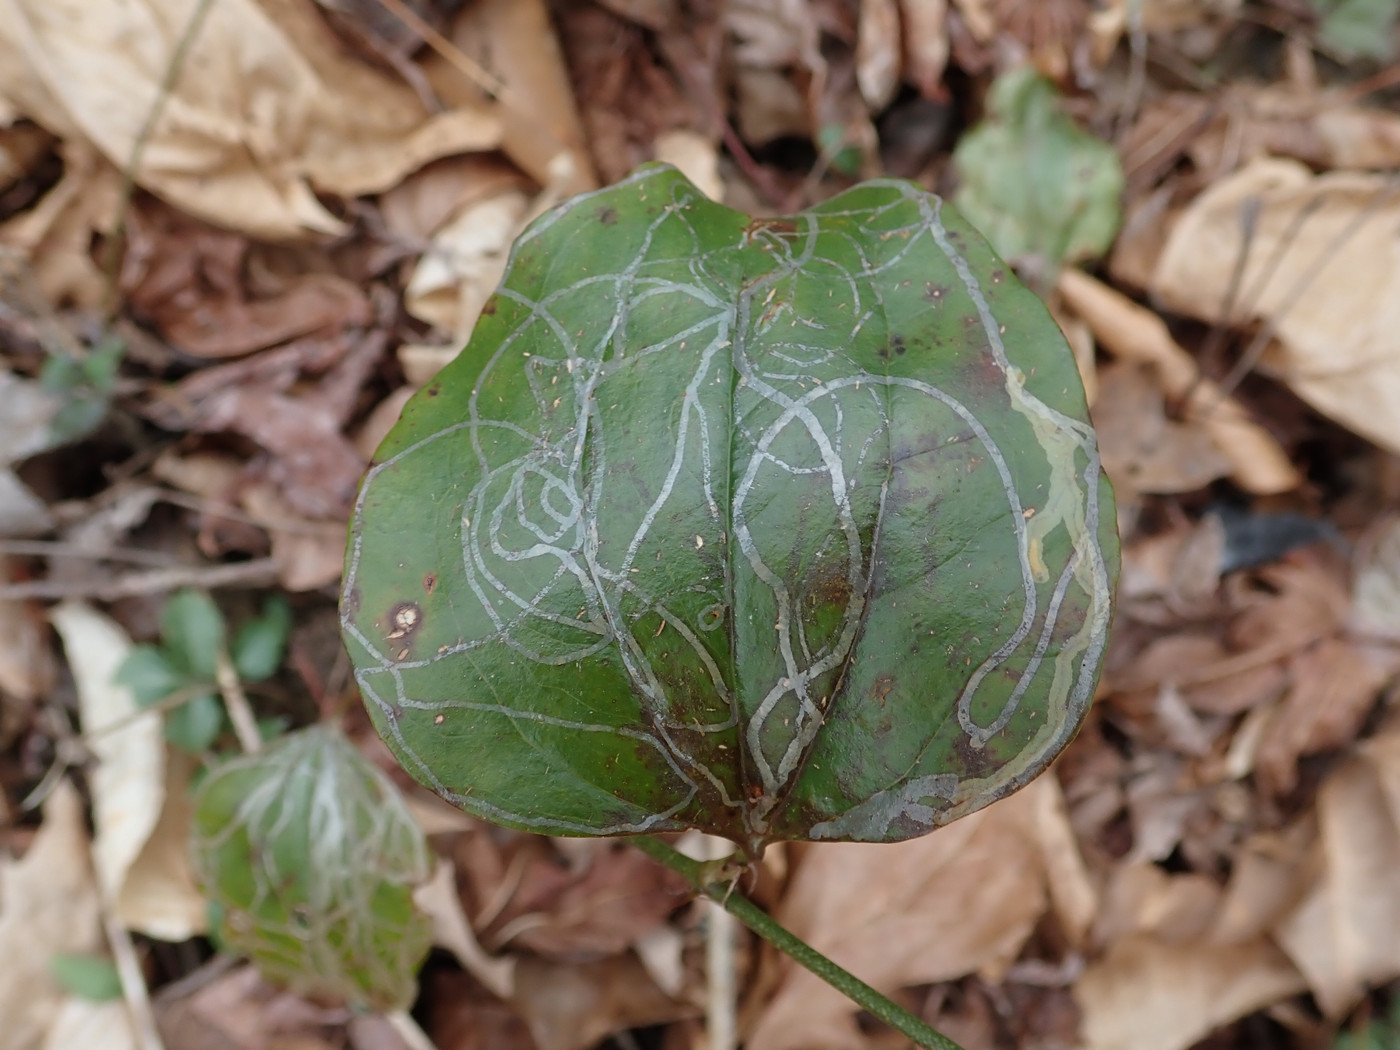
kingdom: Animalia
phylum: Arthropoda
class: Insecta
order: Lepidoptera
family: Gracillariidae
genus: Marmara
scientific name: Marmara smilacisella
